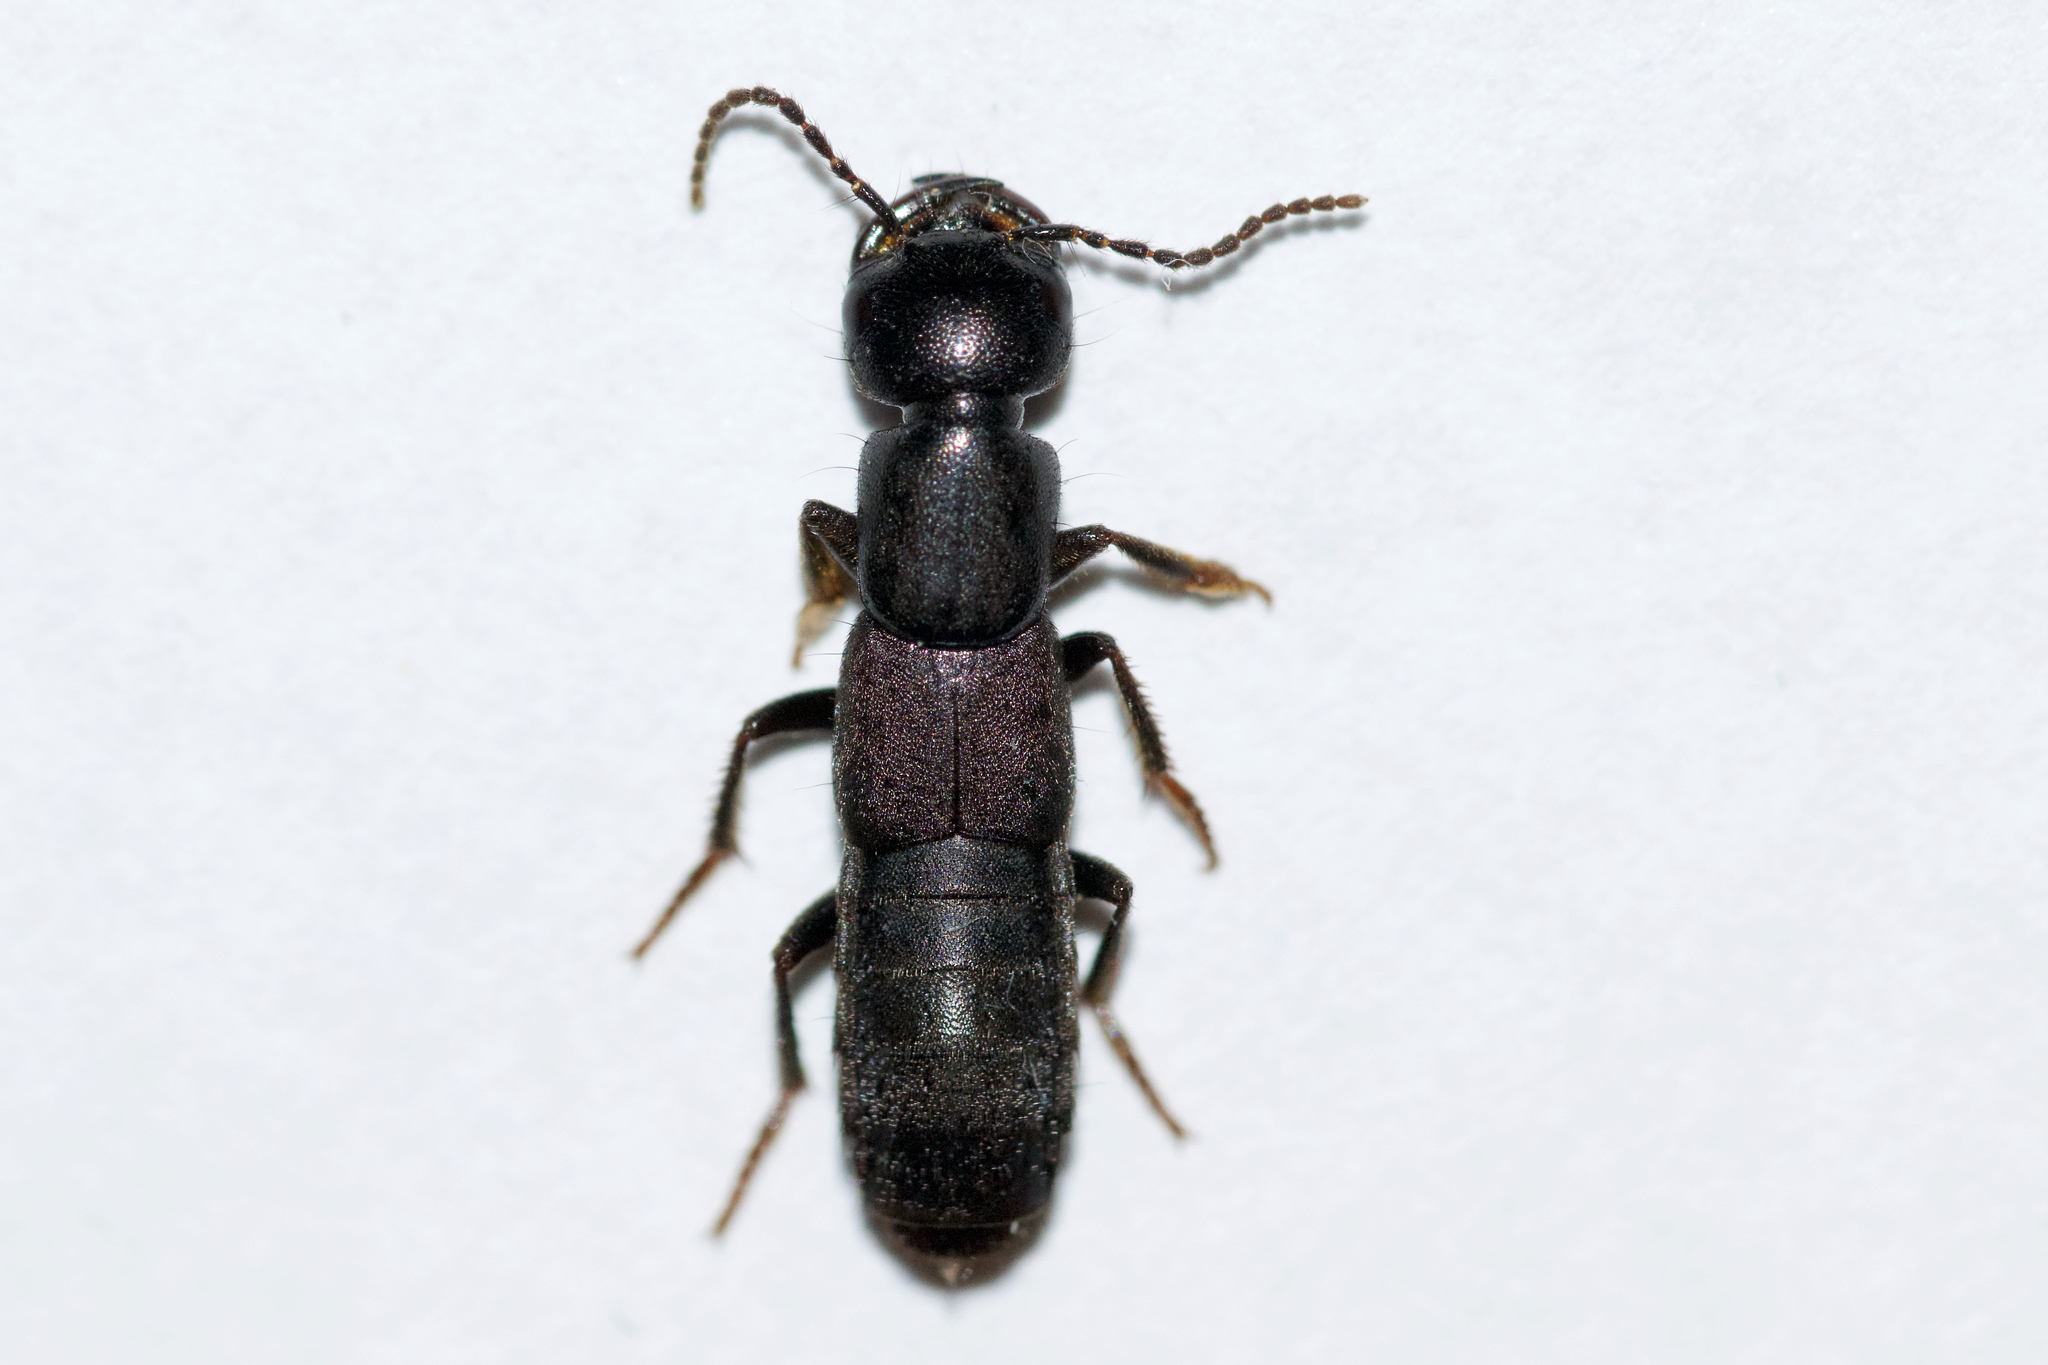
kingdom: Animalia
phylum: Arthropoda
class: Insecta
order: Coleoptera
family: Staphylinidae
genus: Tasgius
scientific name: Tasgius melanarius
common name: Rove beetle
